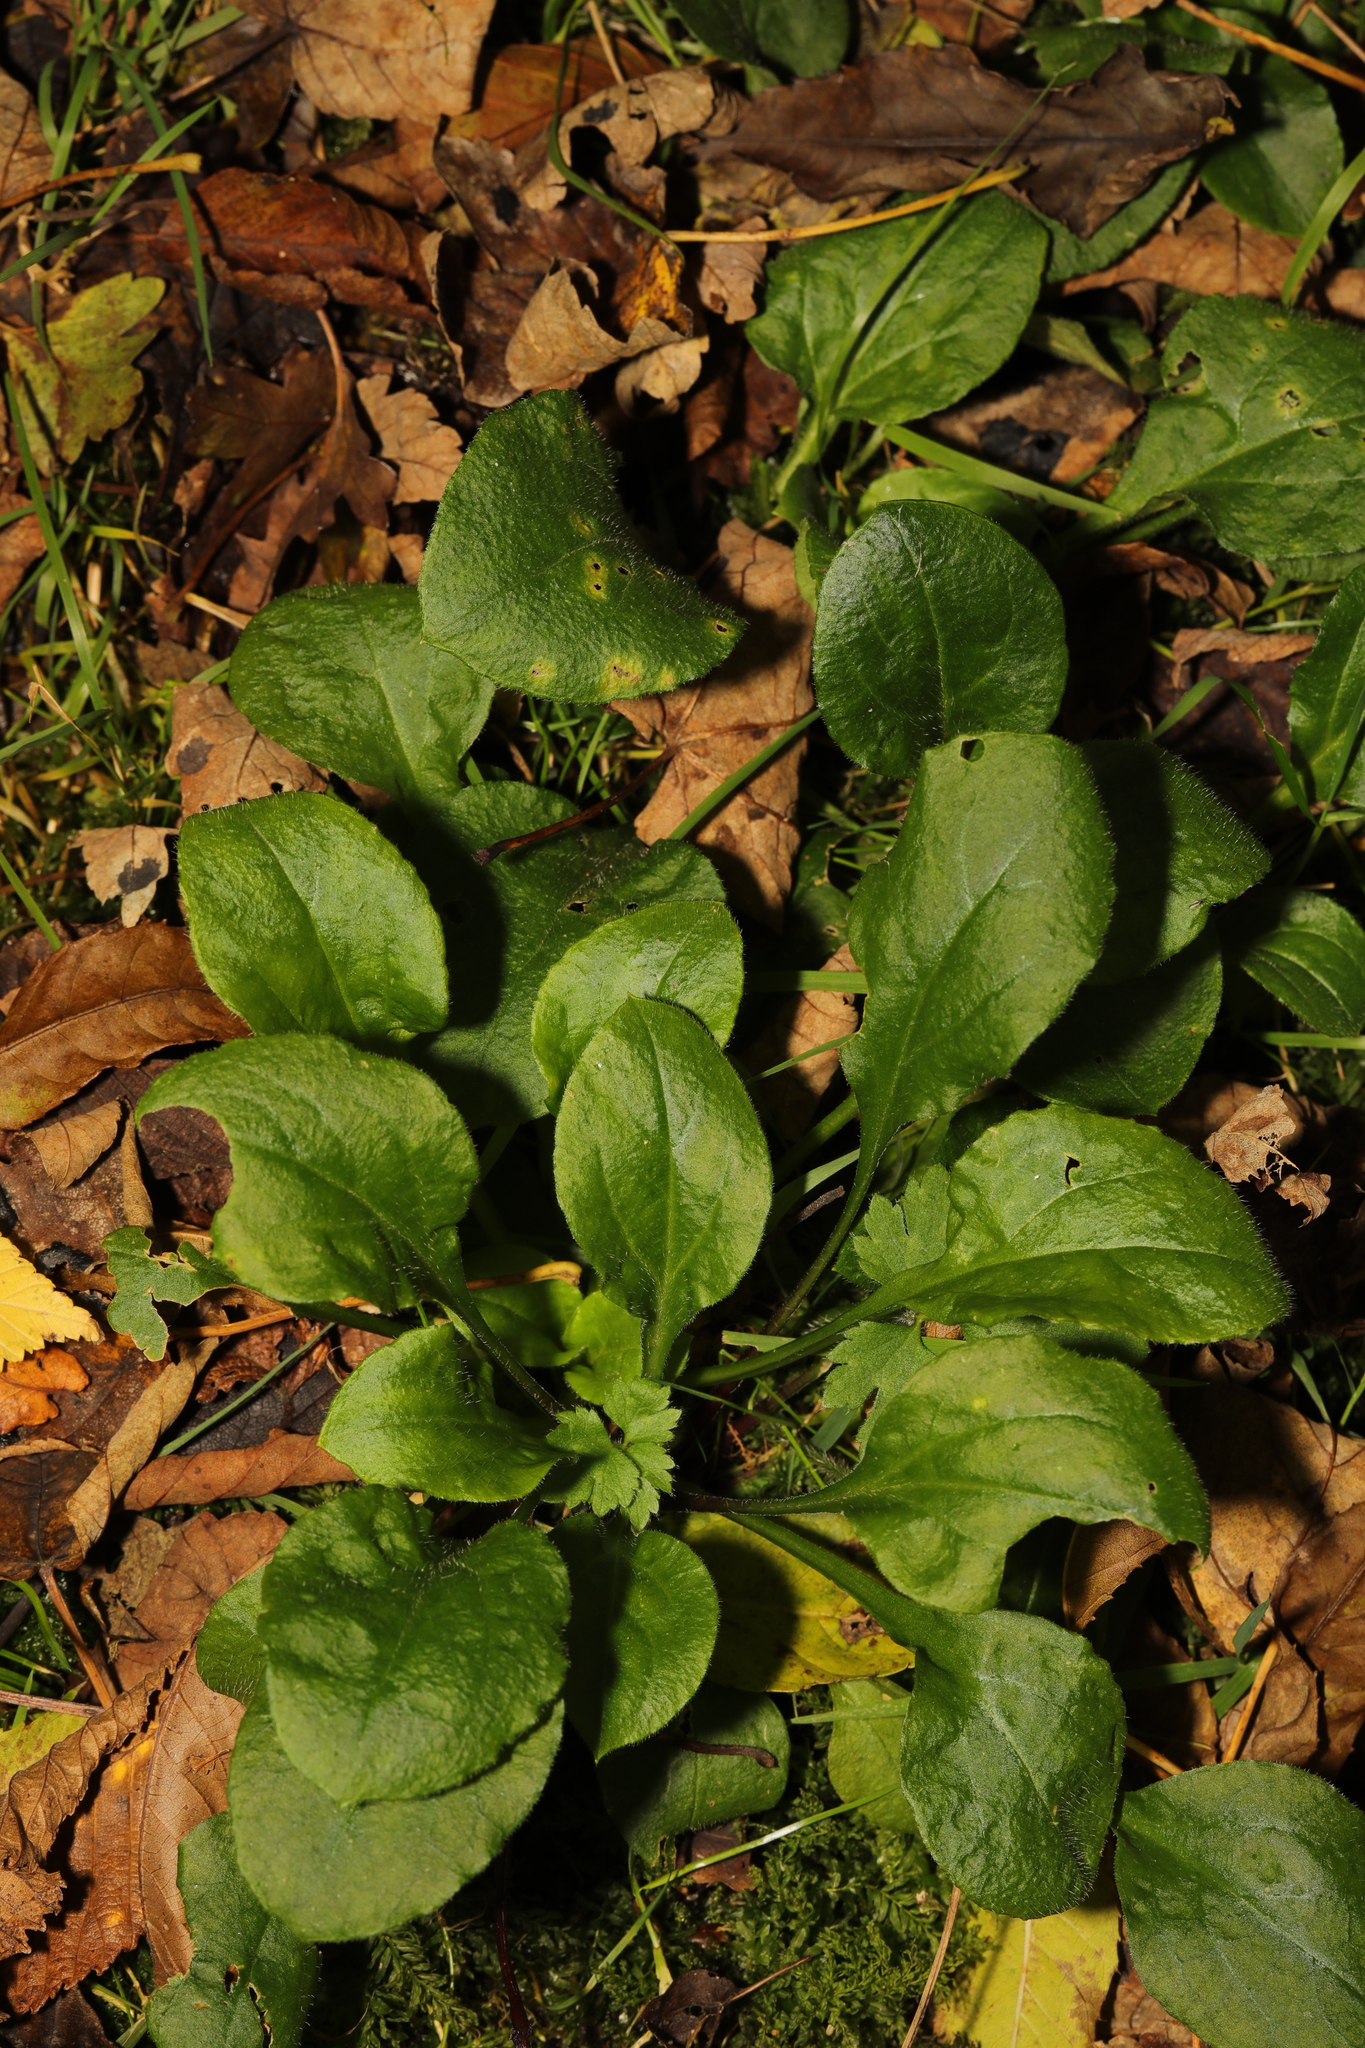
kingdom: Plantae
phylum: Tracheophyta
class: Magnoliopsida
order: Caryophyllales
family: Caryophyllaceae
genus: Silene
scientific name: Silene dioica
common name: Red campion
